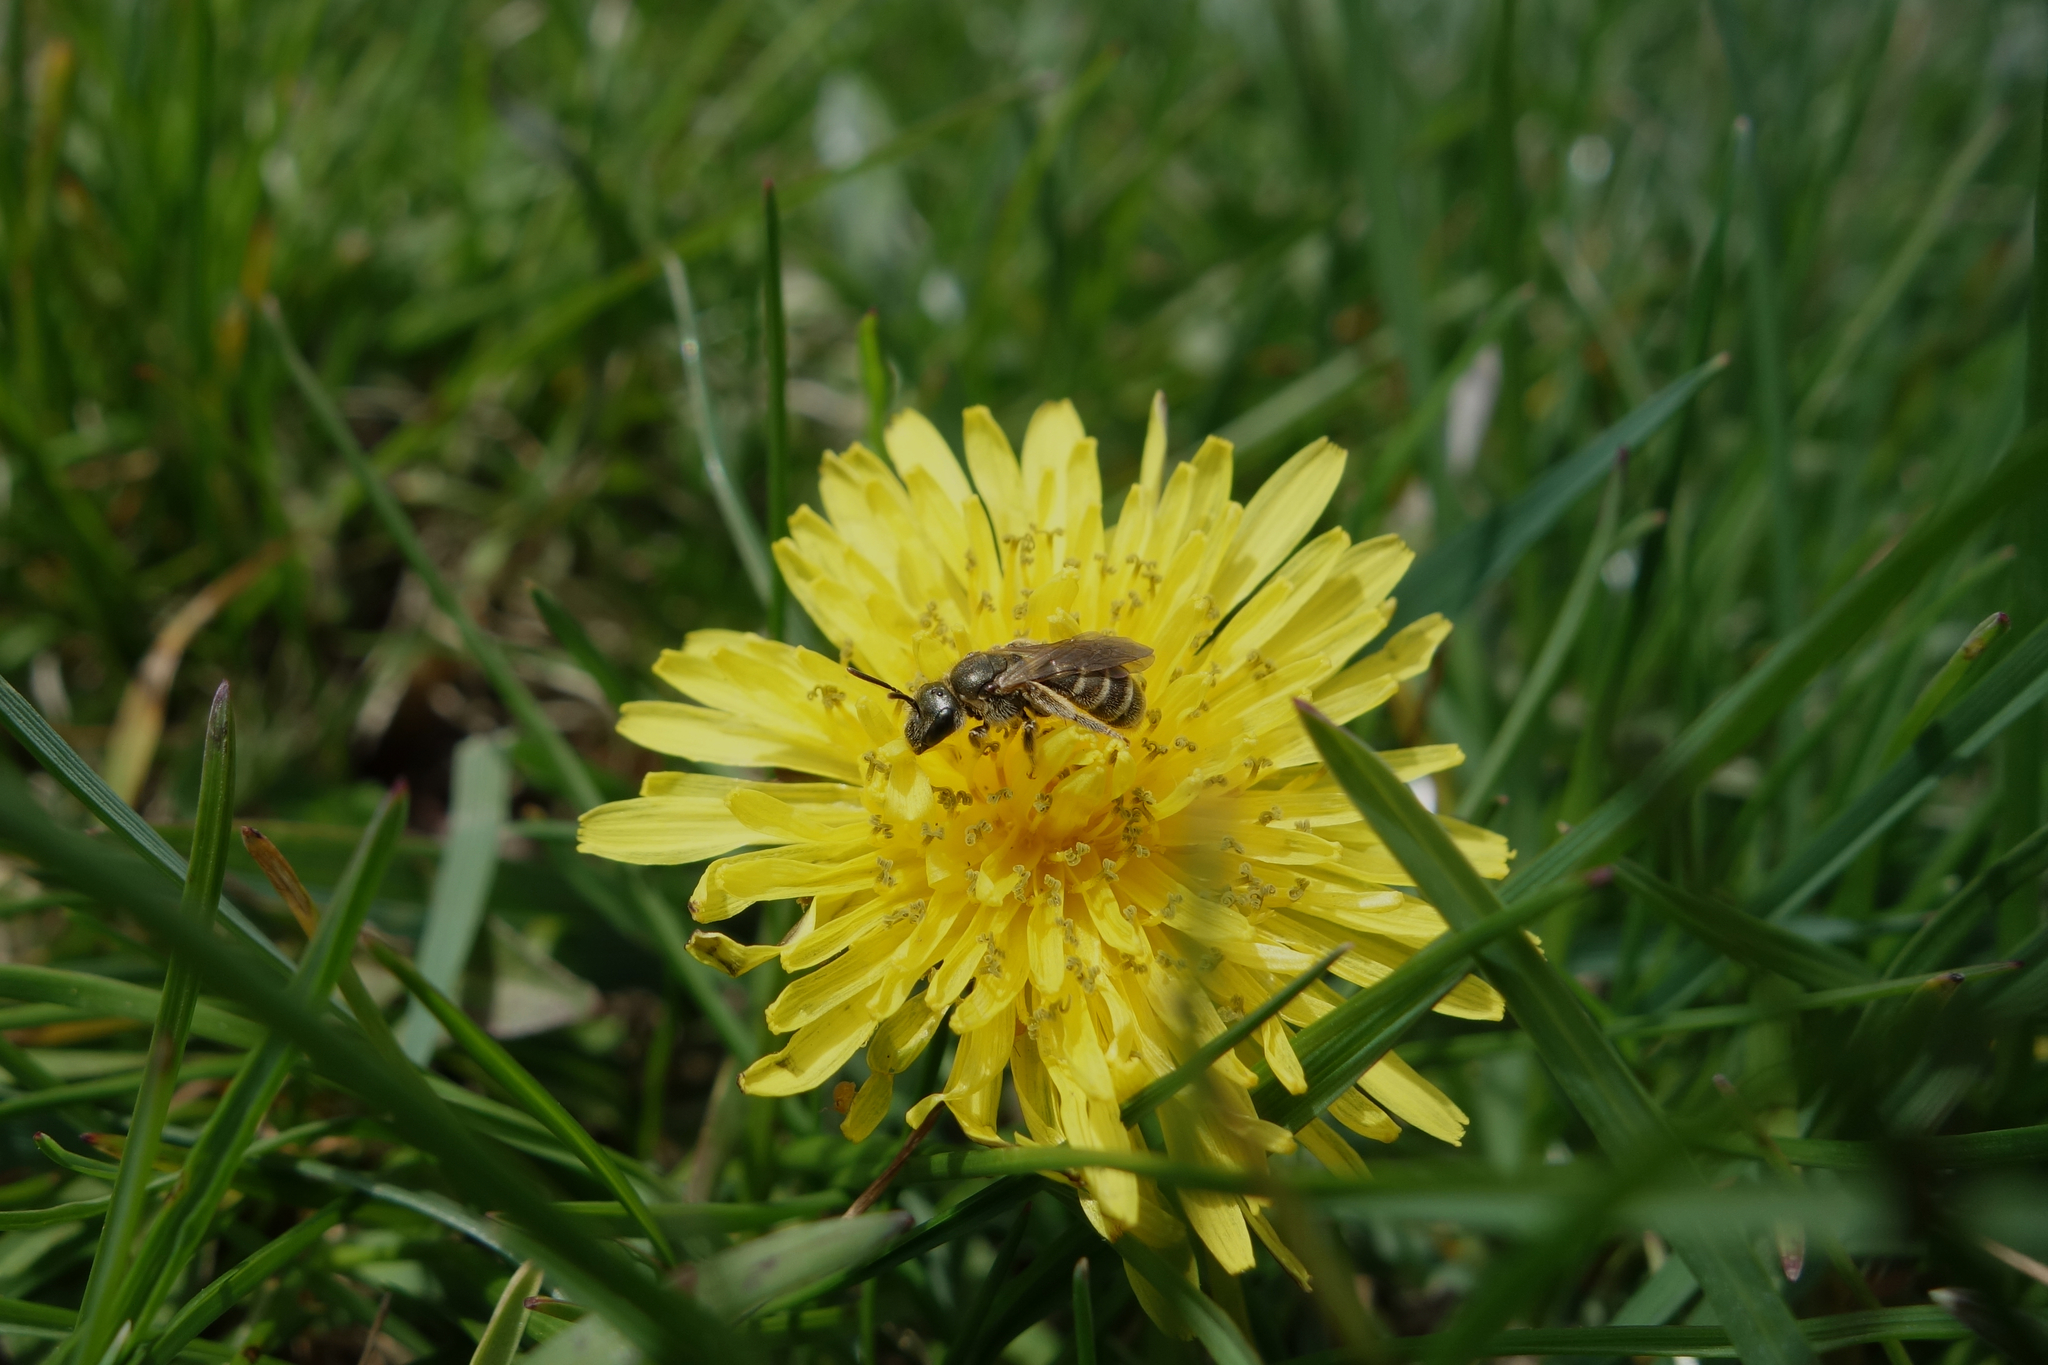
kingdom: Animalia
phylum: Arthropoda
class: Insecta
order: Hymenoptera
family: Halictidae
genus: Halictus
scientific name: Halictus confusus
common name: Southern bronze furrow bee
